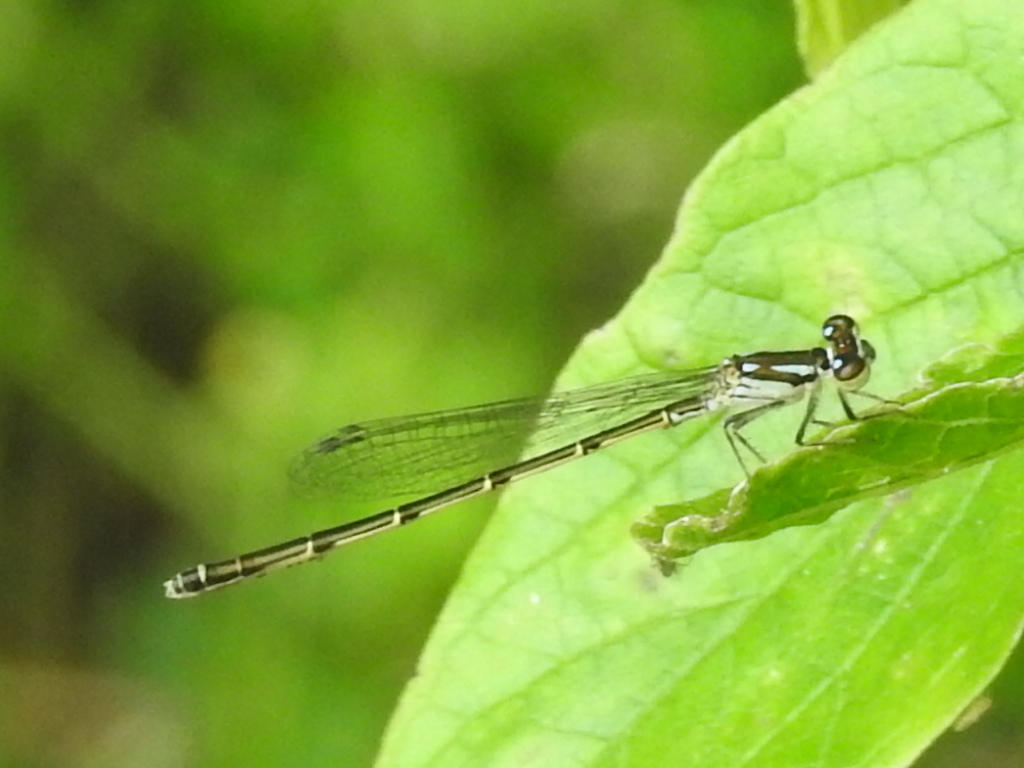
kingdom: Animalia
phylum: Arthropoda
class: Insecta
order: Odonata
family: Coenagrionidae
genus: Ischnura
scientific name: Ischnura posita
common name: Fragile forktail
